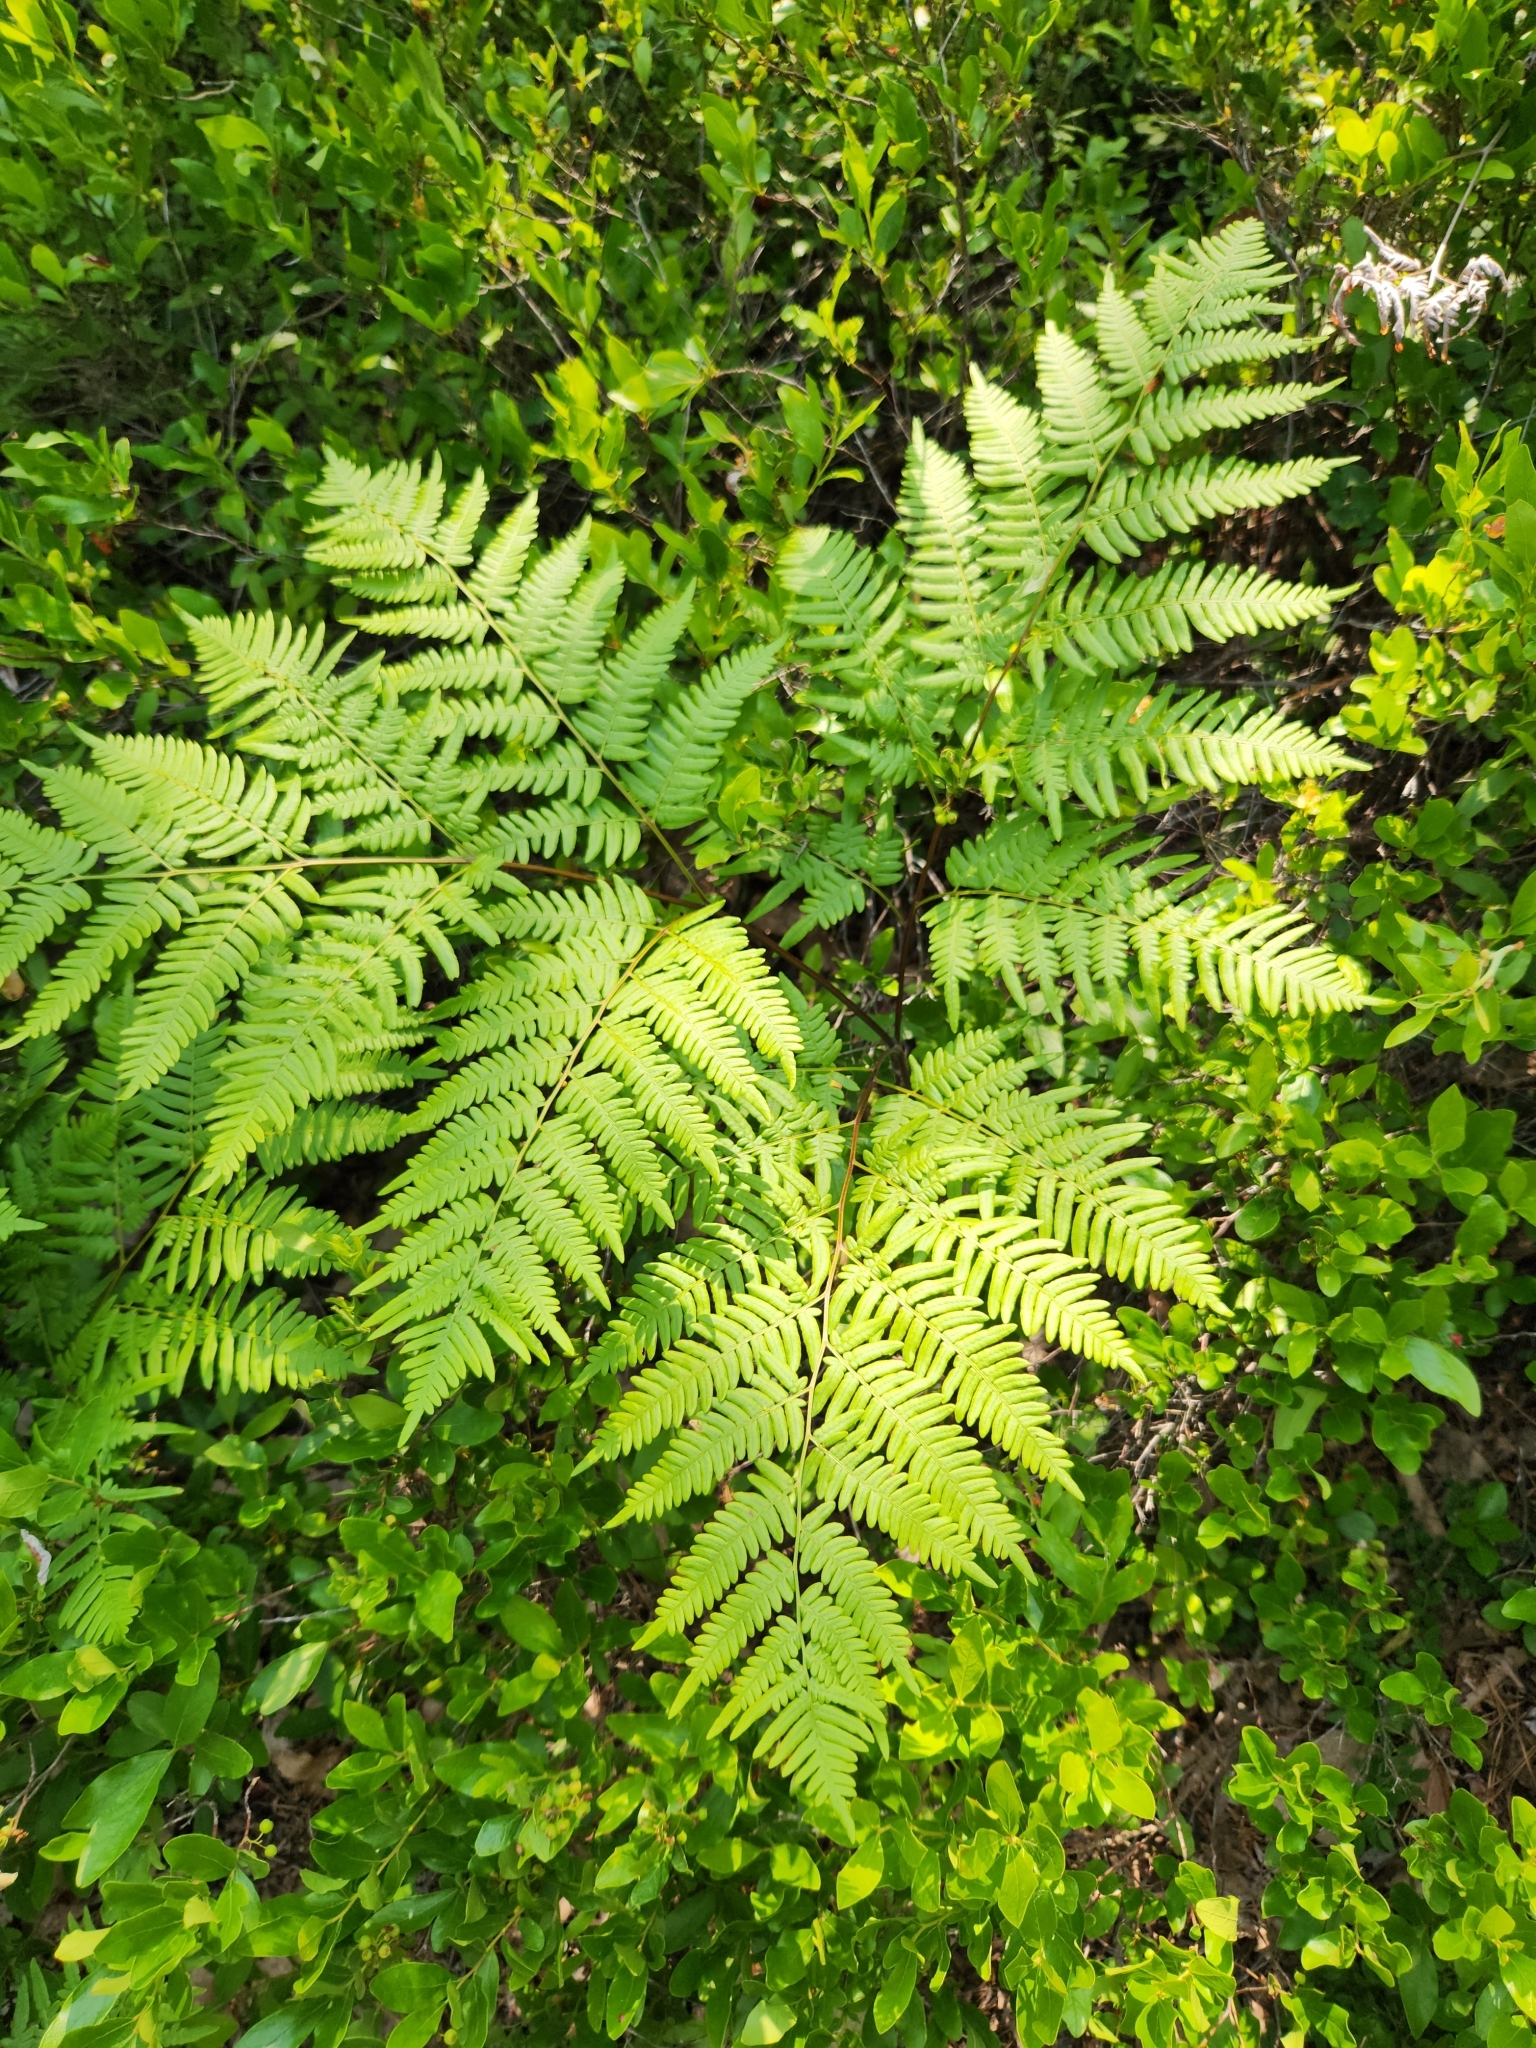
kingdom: Plantae
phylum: Tracheophyta
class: Polypodiopsida
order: Polypodiales
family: Dennstaedtiaceae
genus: Pteridium
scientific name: Pteridium aquilinum
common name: Bracken
